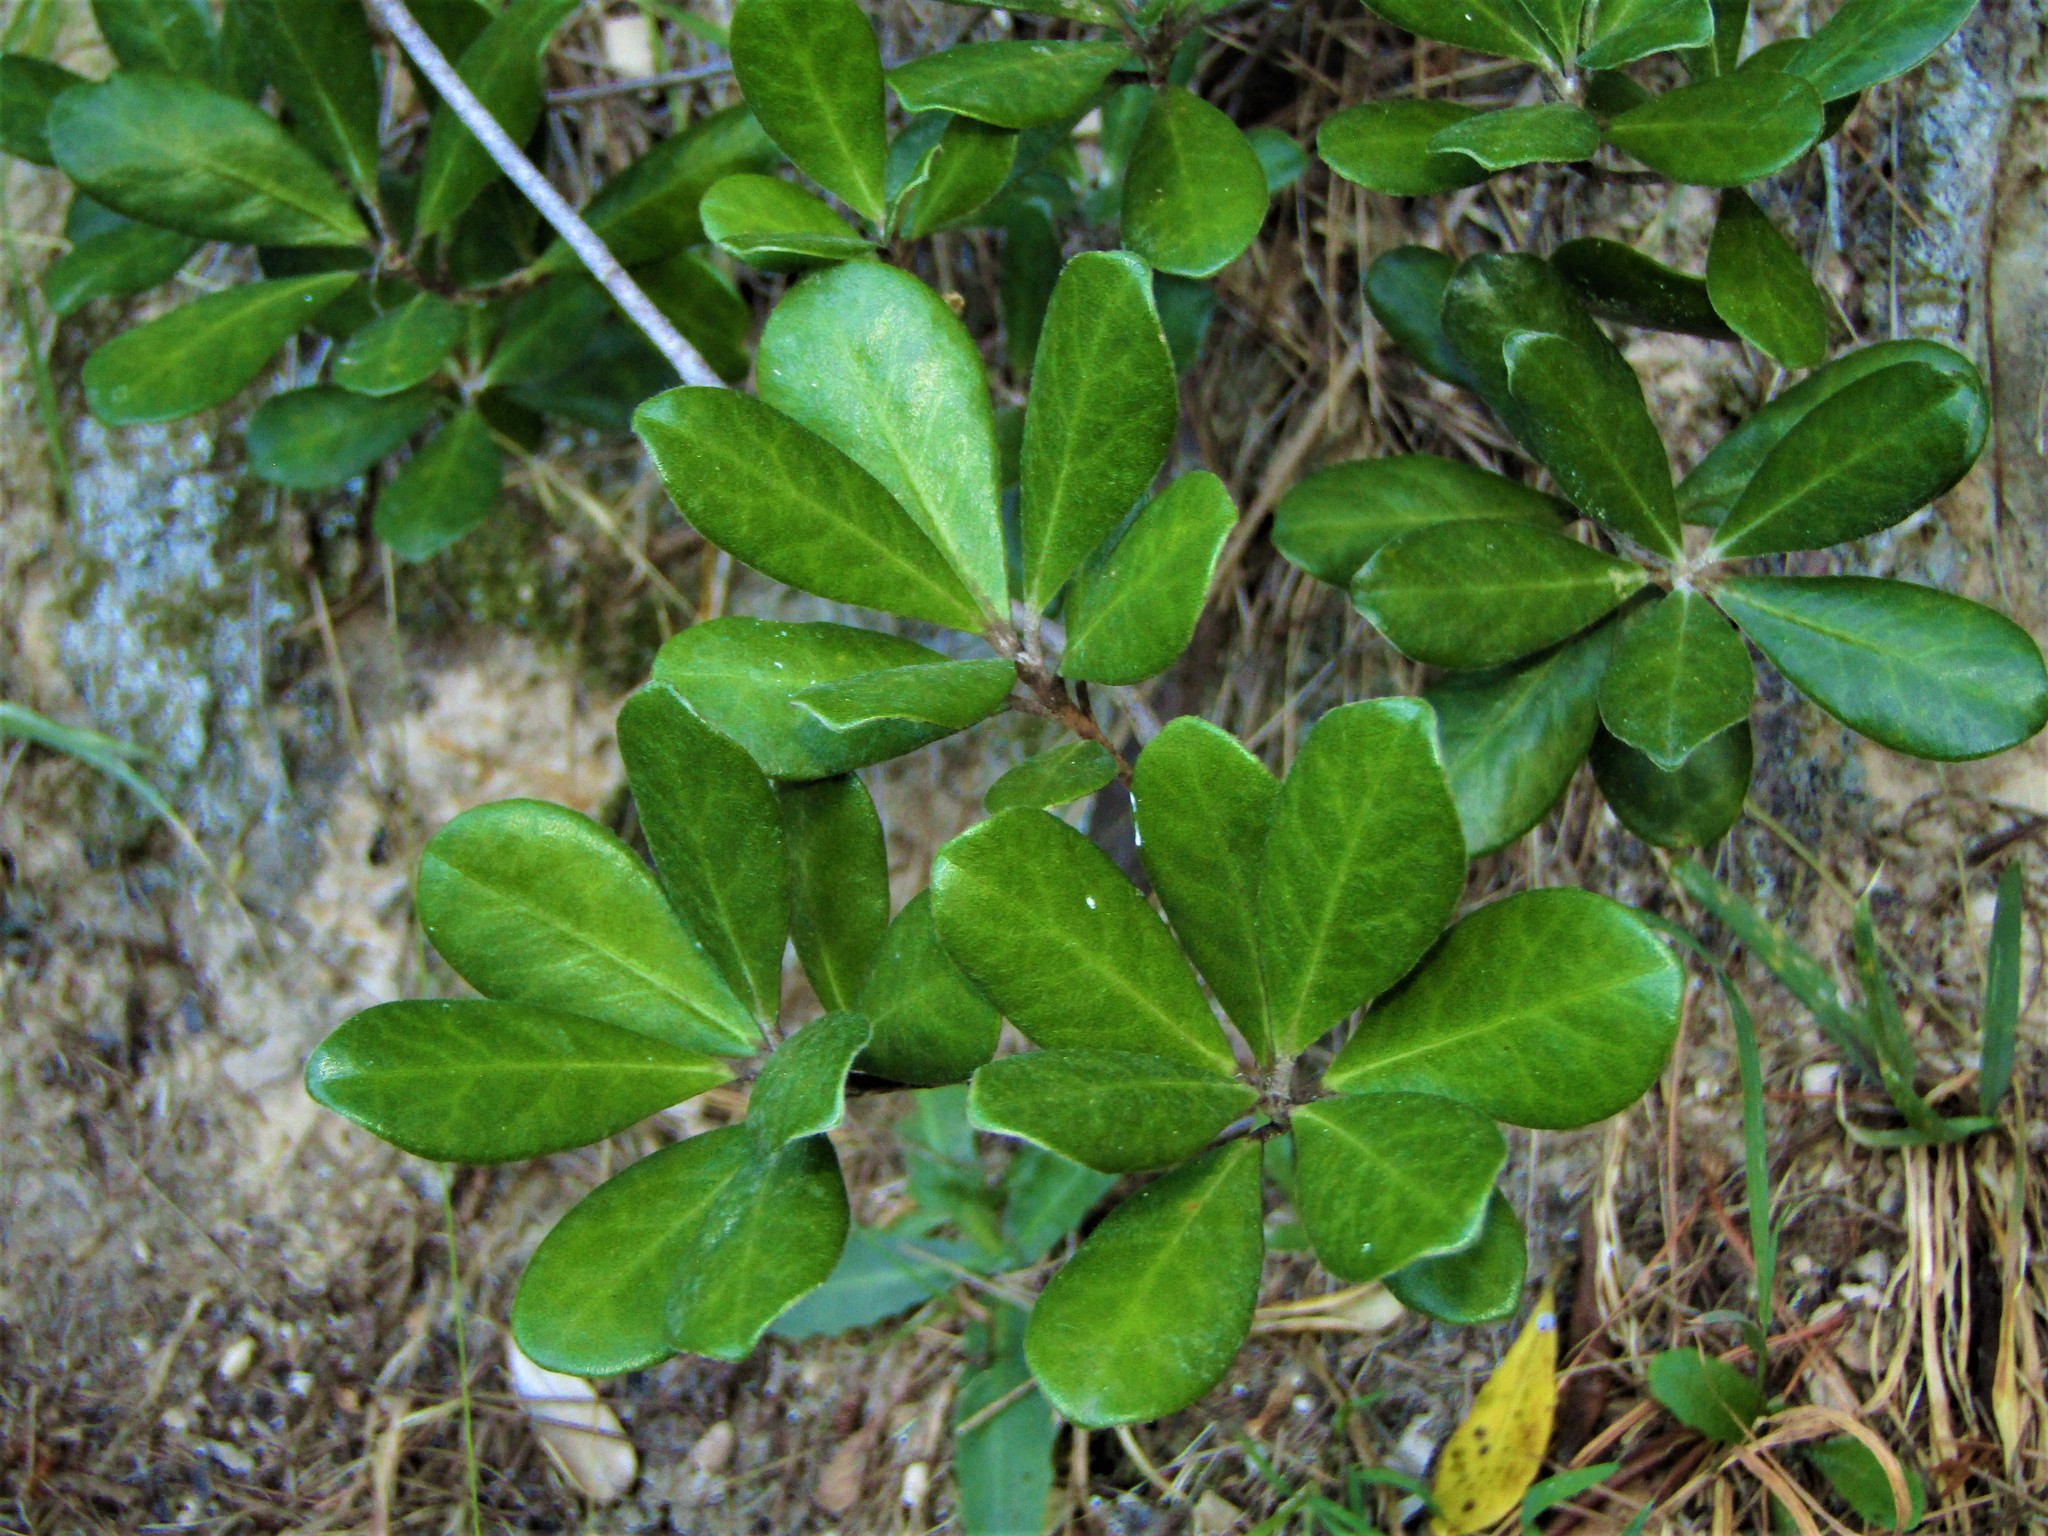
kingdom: Plantae
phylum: Tracheophyta
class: Magnoliopsida
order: Apiales
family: Pittosporaceae
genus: Pittosporum
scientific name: Pittosporum crassifolium
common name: Karo
